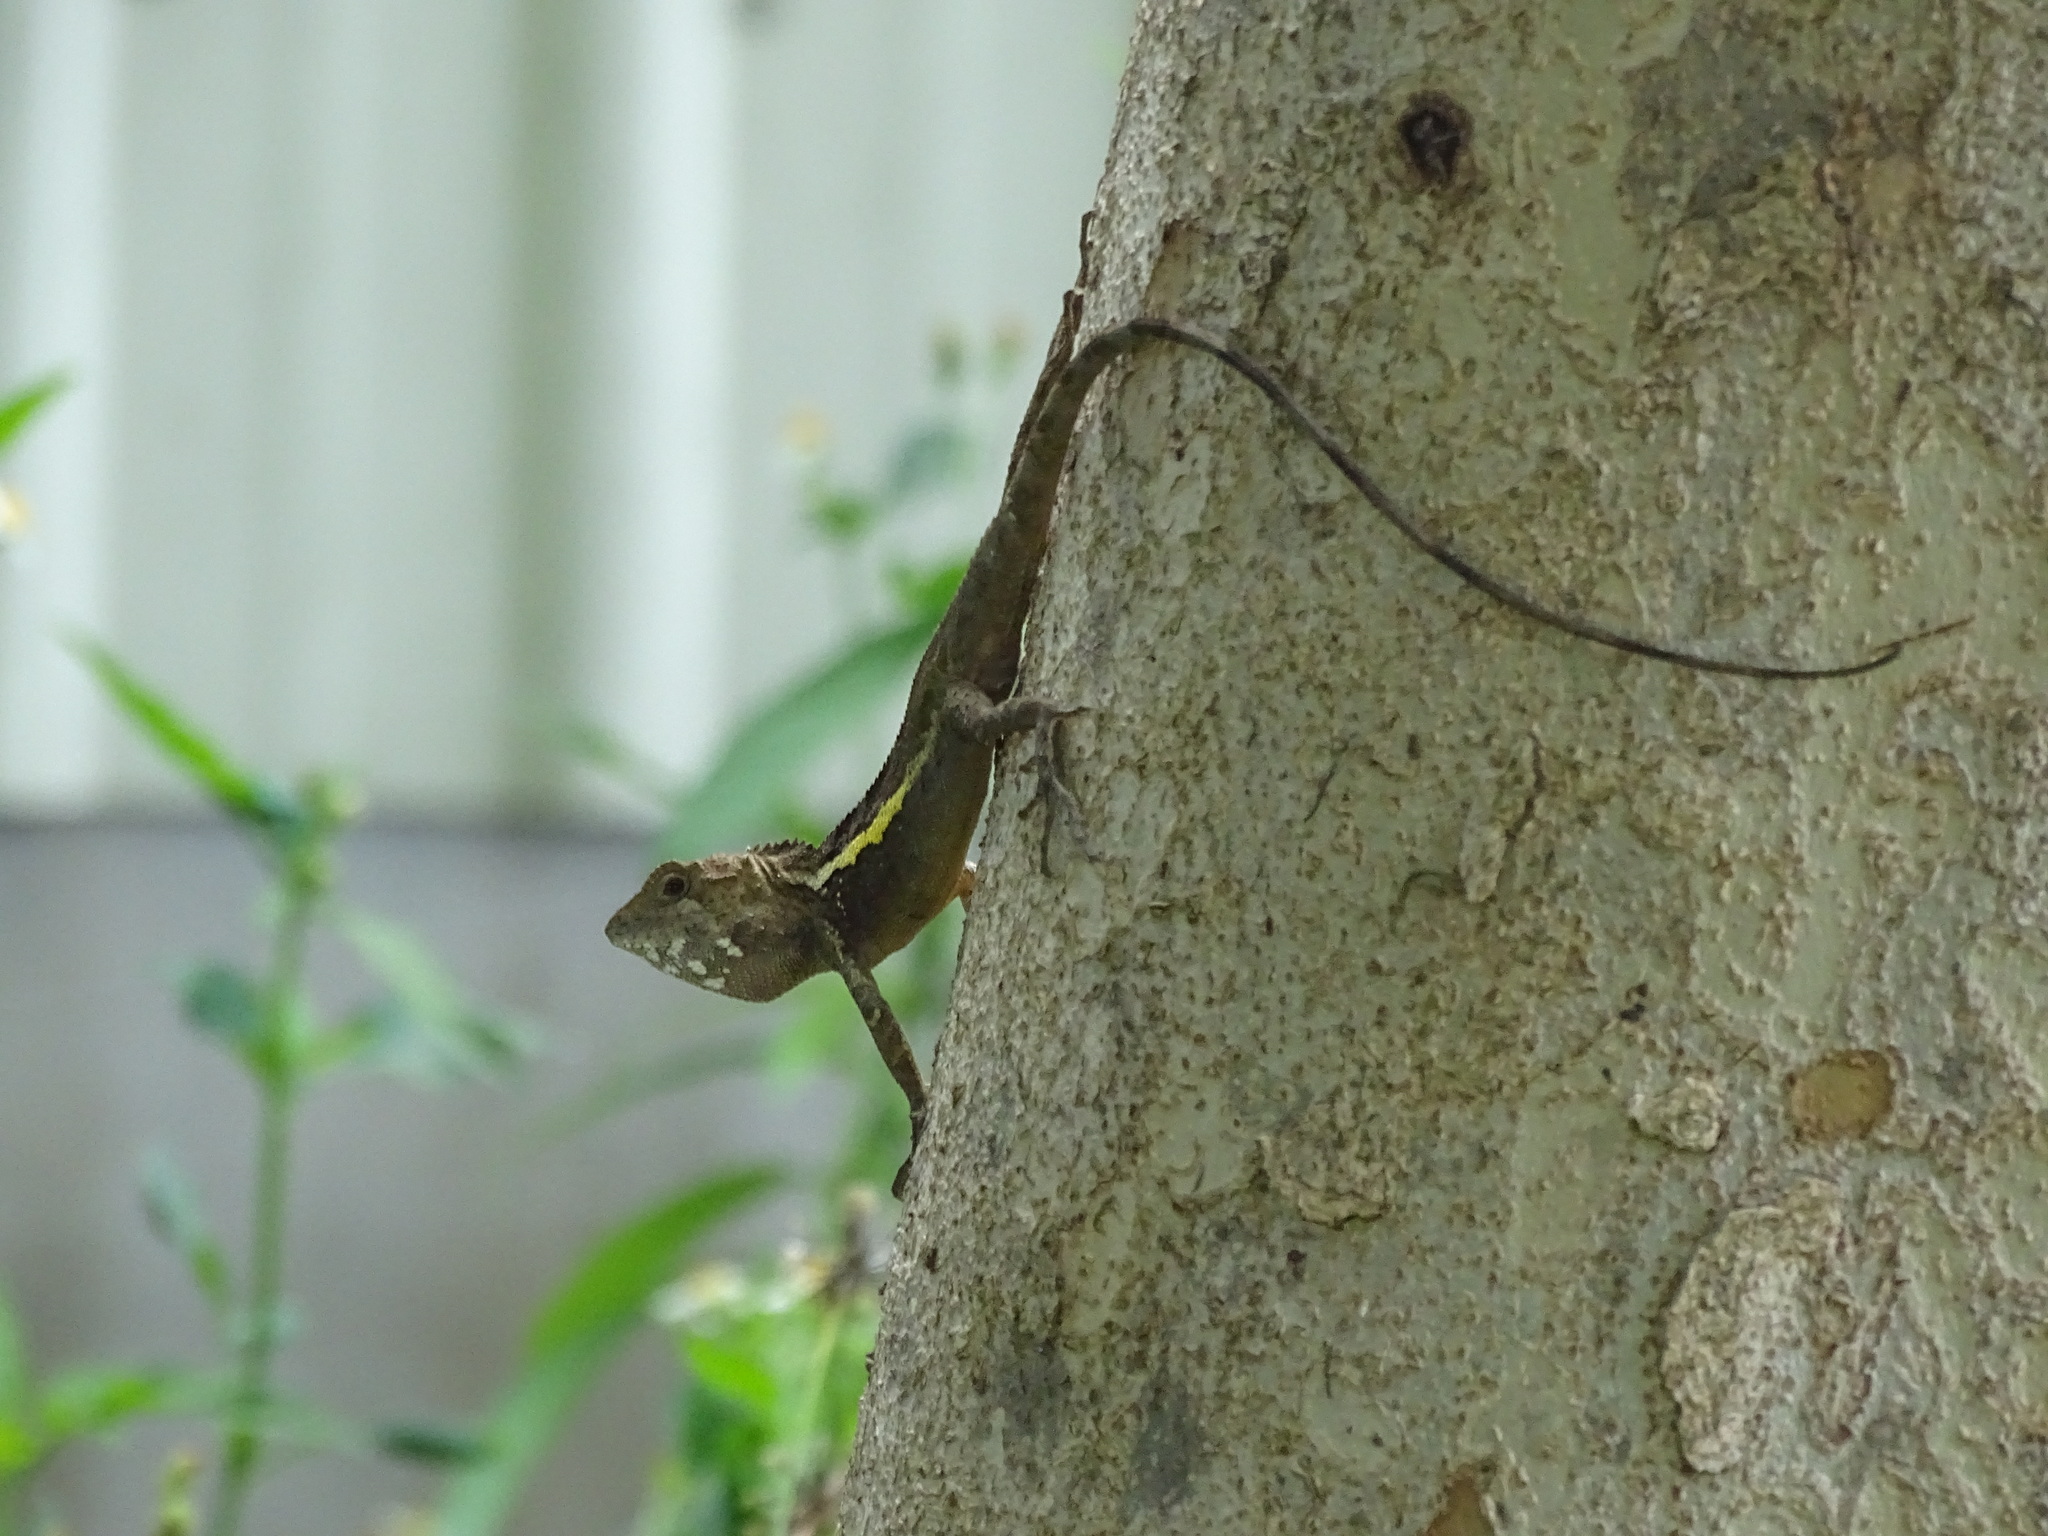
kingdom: Animalia
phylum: Chordata
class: Squamata
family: Agamidae
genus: Diploderma
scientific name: Diploderma swinhonis
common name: Taiwan japalure
